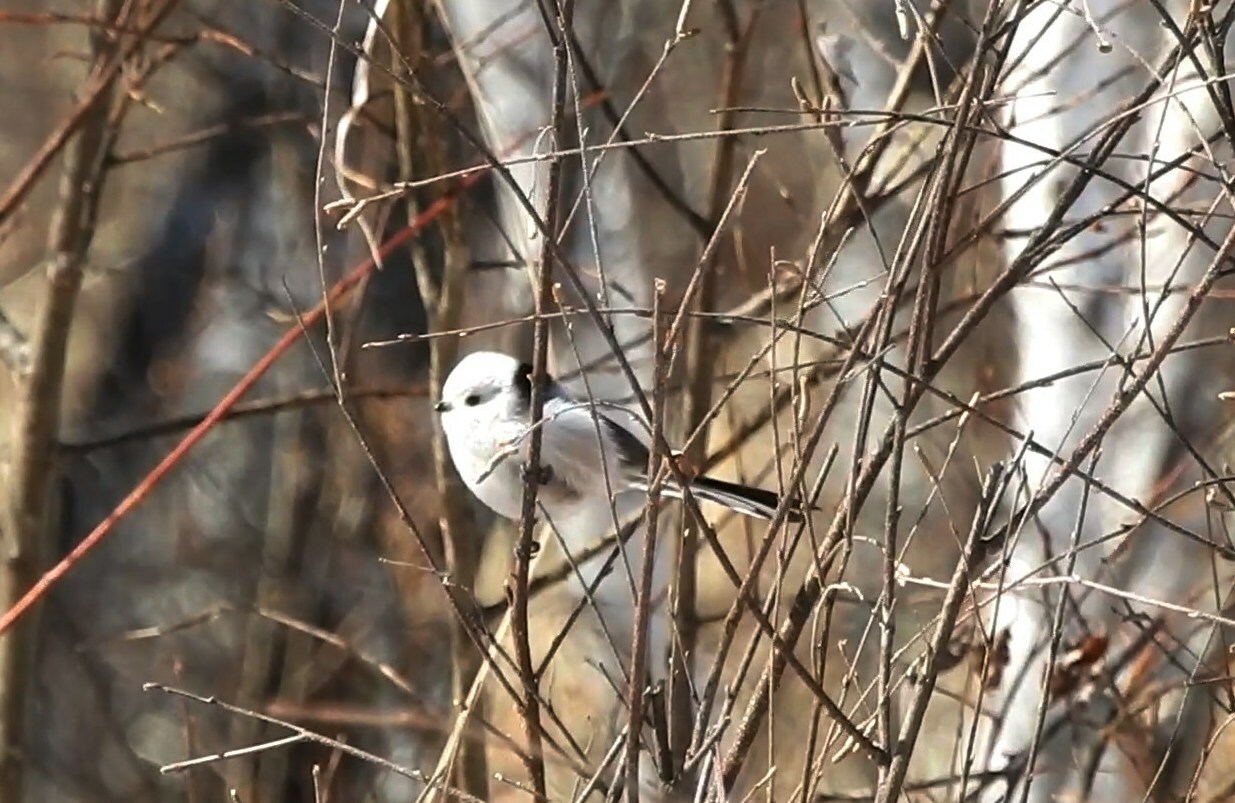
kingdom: Animalia
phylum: Chordata
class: Aves
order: Passeriformes
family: Aegithalidae
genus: Aegithalos
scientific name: Aegithalos caudatus
